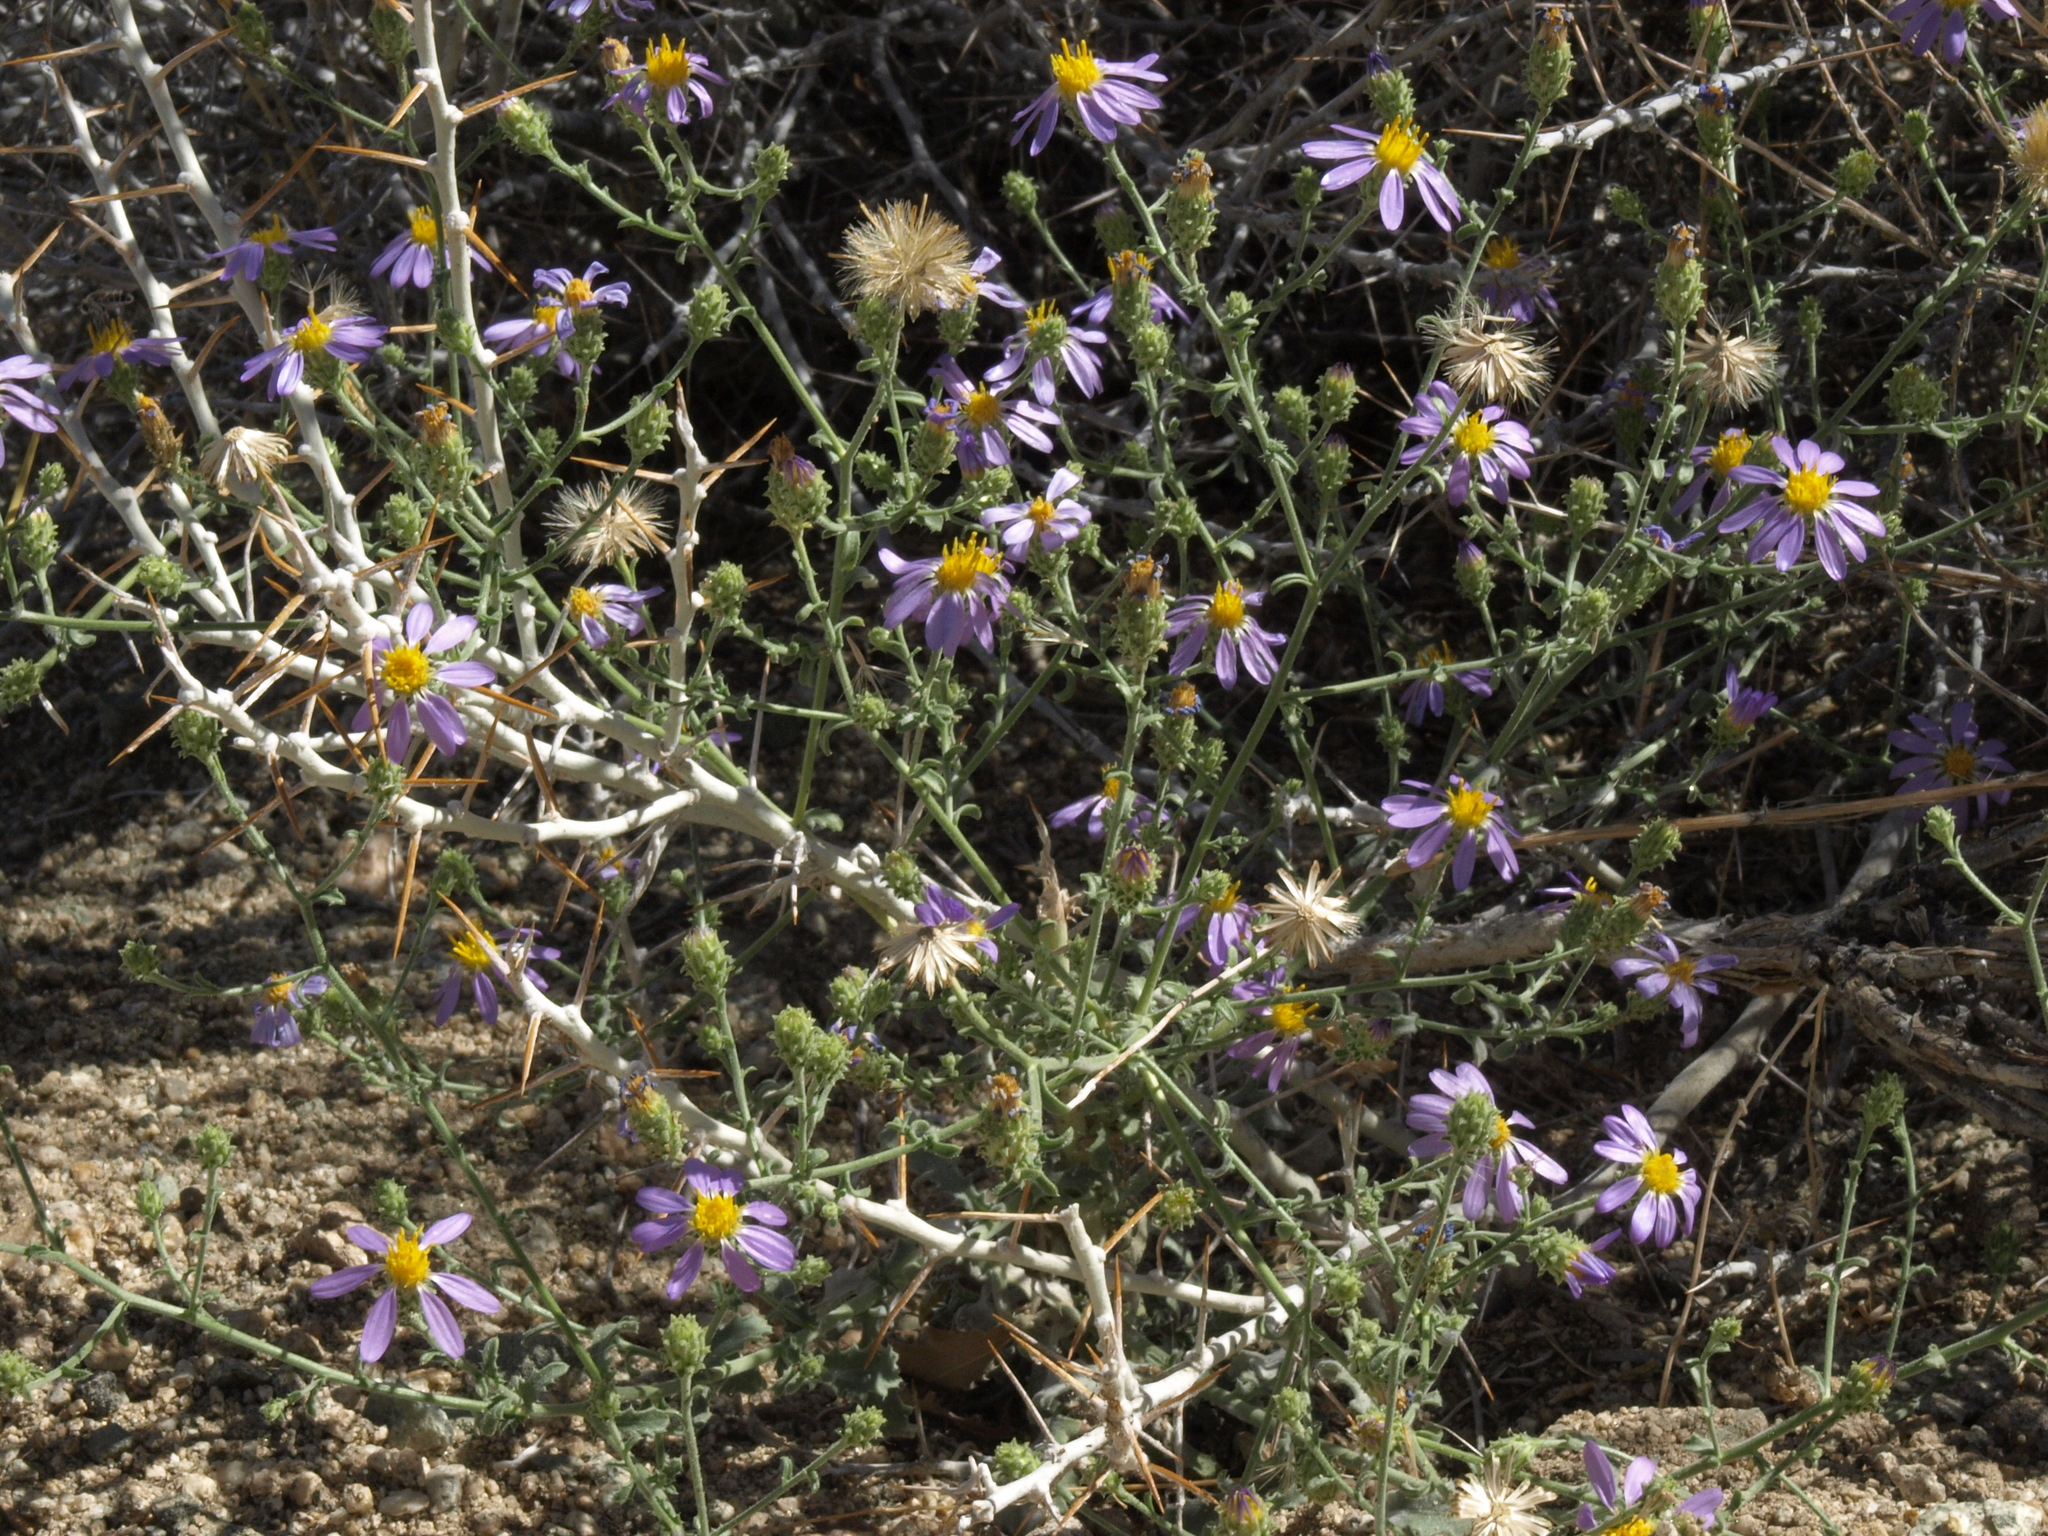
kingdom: Plantae
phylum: Tracheophyta
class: Magnoliopsida
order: Asterales
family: Asteraceae
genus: Tetradymia
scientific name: Tetradymia axillaris
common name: Long-spine horsebrush
